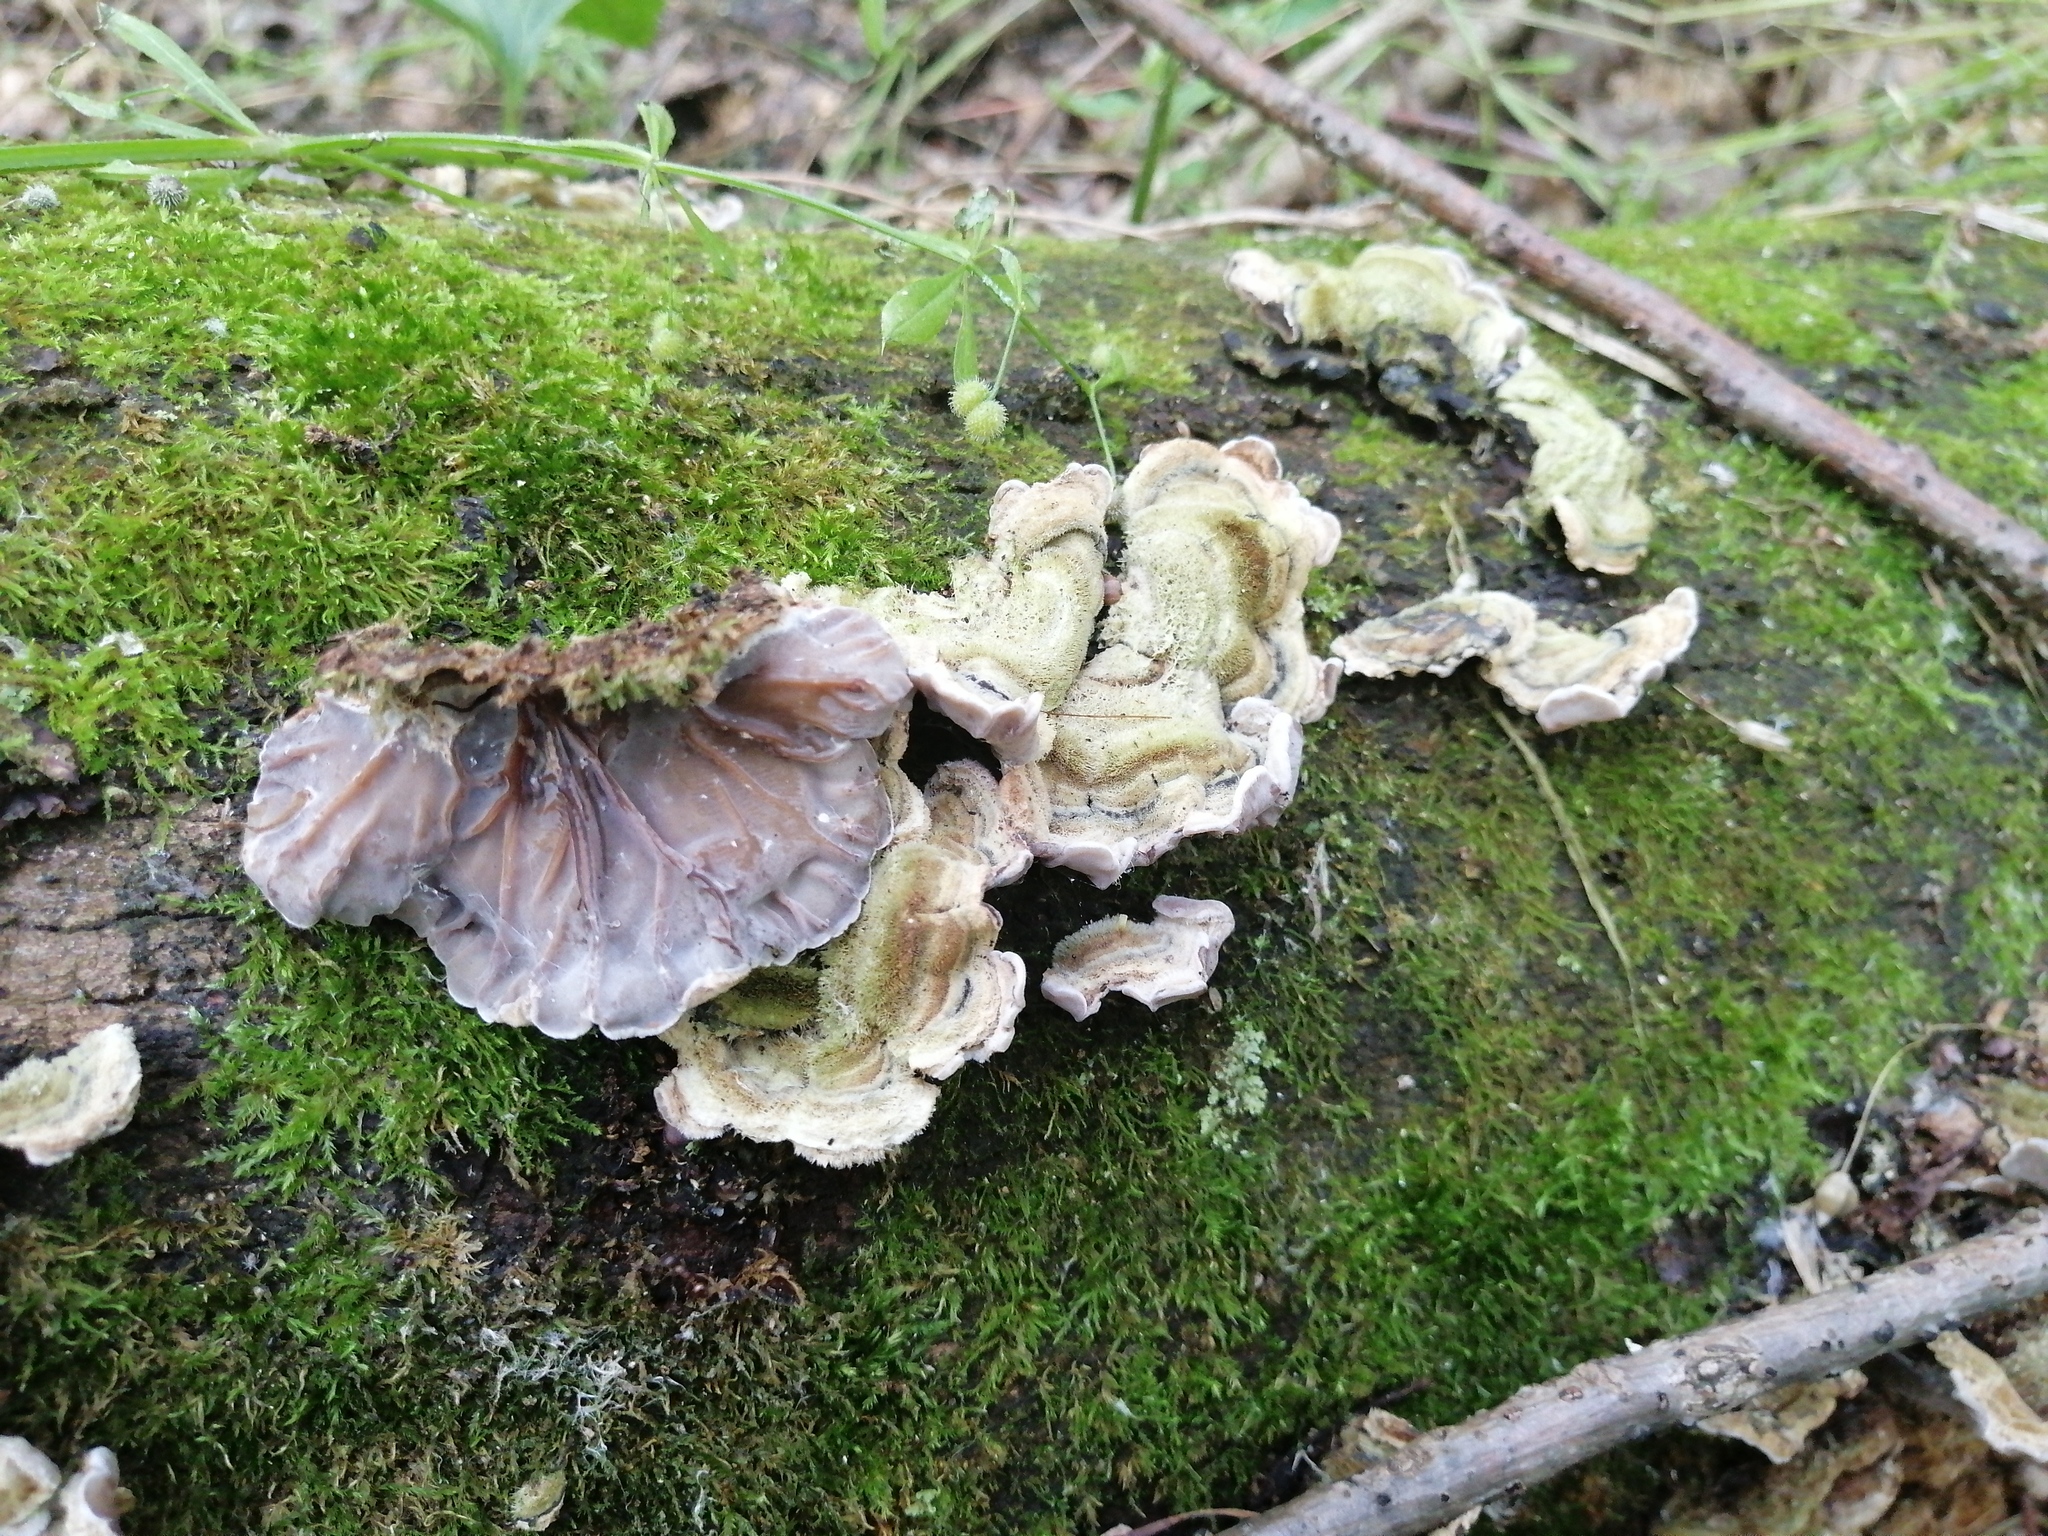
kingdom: Fungi
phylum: Basidiomycota
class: Agaricomycetes
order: Auriculariales
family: Auriculariaceae
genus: Auricularia
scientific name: Auricularia mesenterica
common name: Tripe fungus
